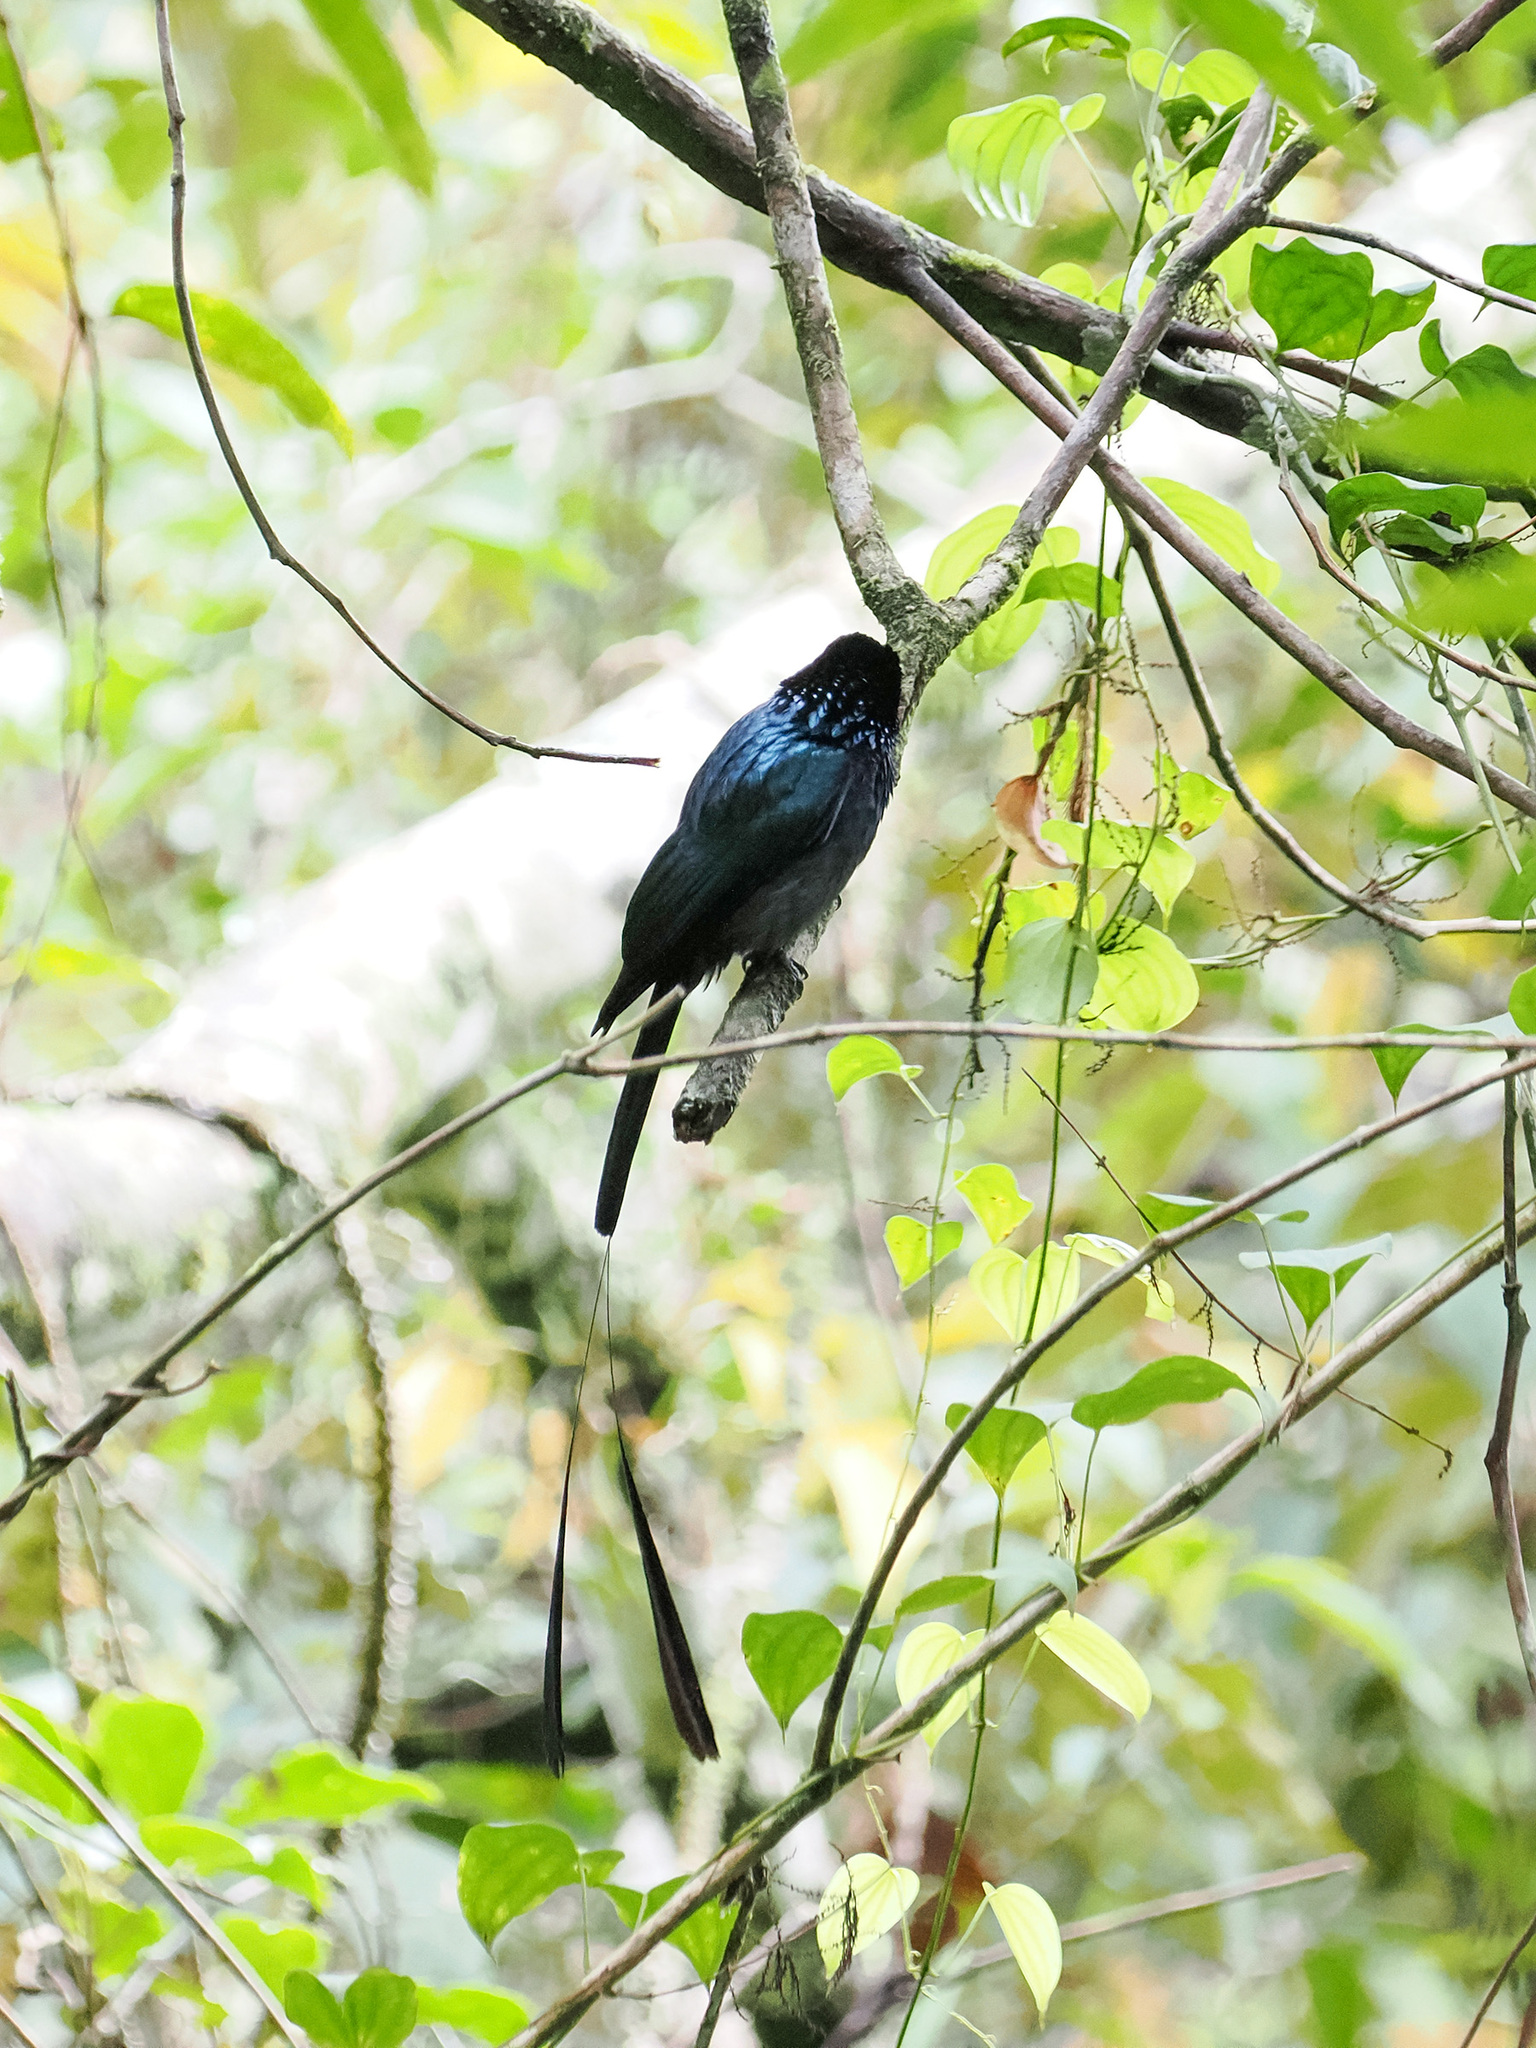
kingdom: Animalia
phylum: Chordata
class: Aves
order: Passeriformes
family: Dicruridae
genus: Dicrurus
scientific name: Dicrurus remifer
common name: Lesser racket-tailed drongo
